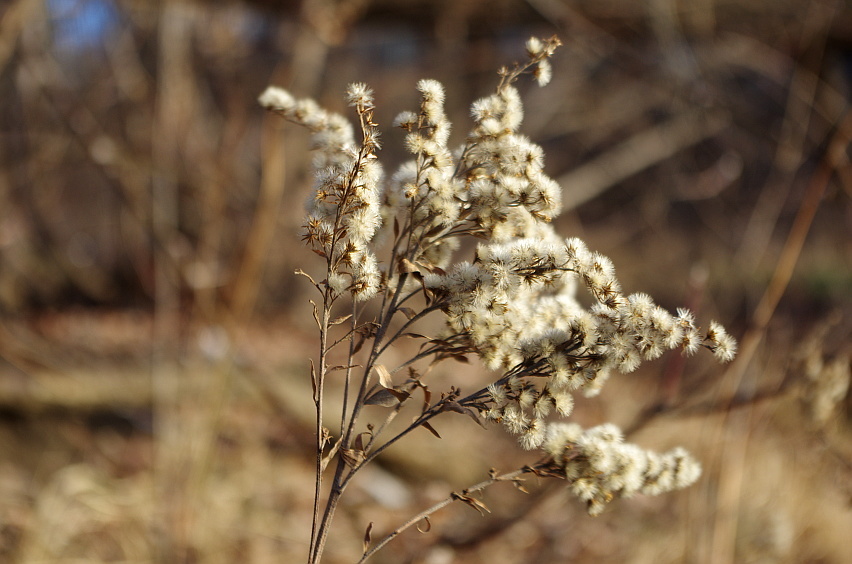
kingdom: Plantae
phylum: Tracheophyta
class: Magnoliopsida
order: Asterales
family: Asteraceae
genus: Solidago
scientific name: Solidago gigantea
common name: Giant goldenrod
